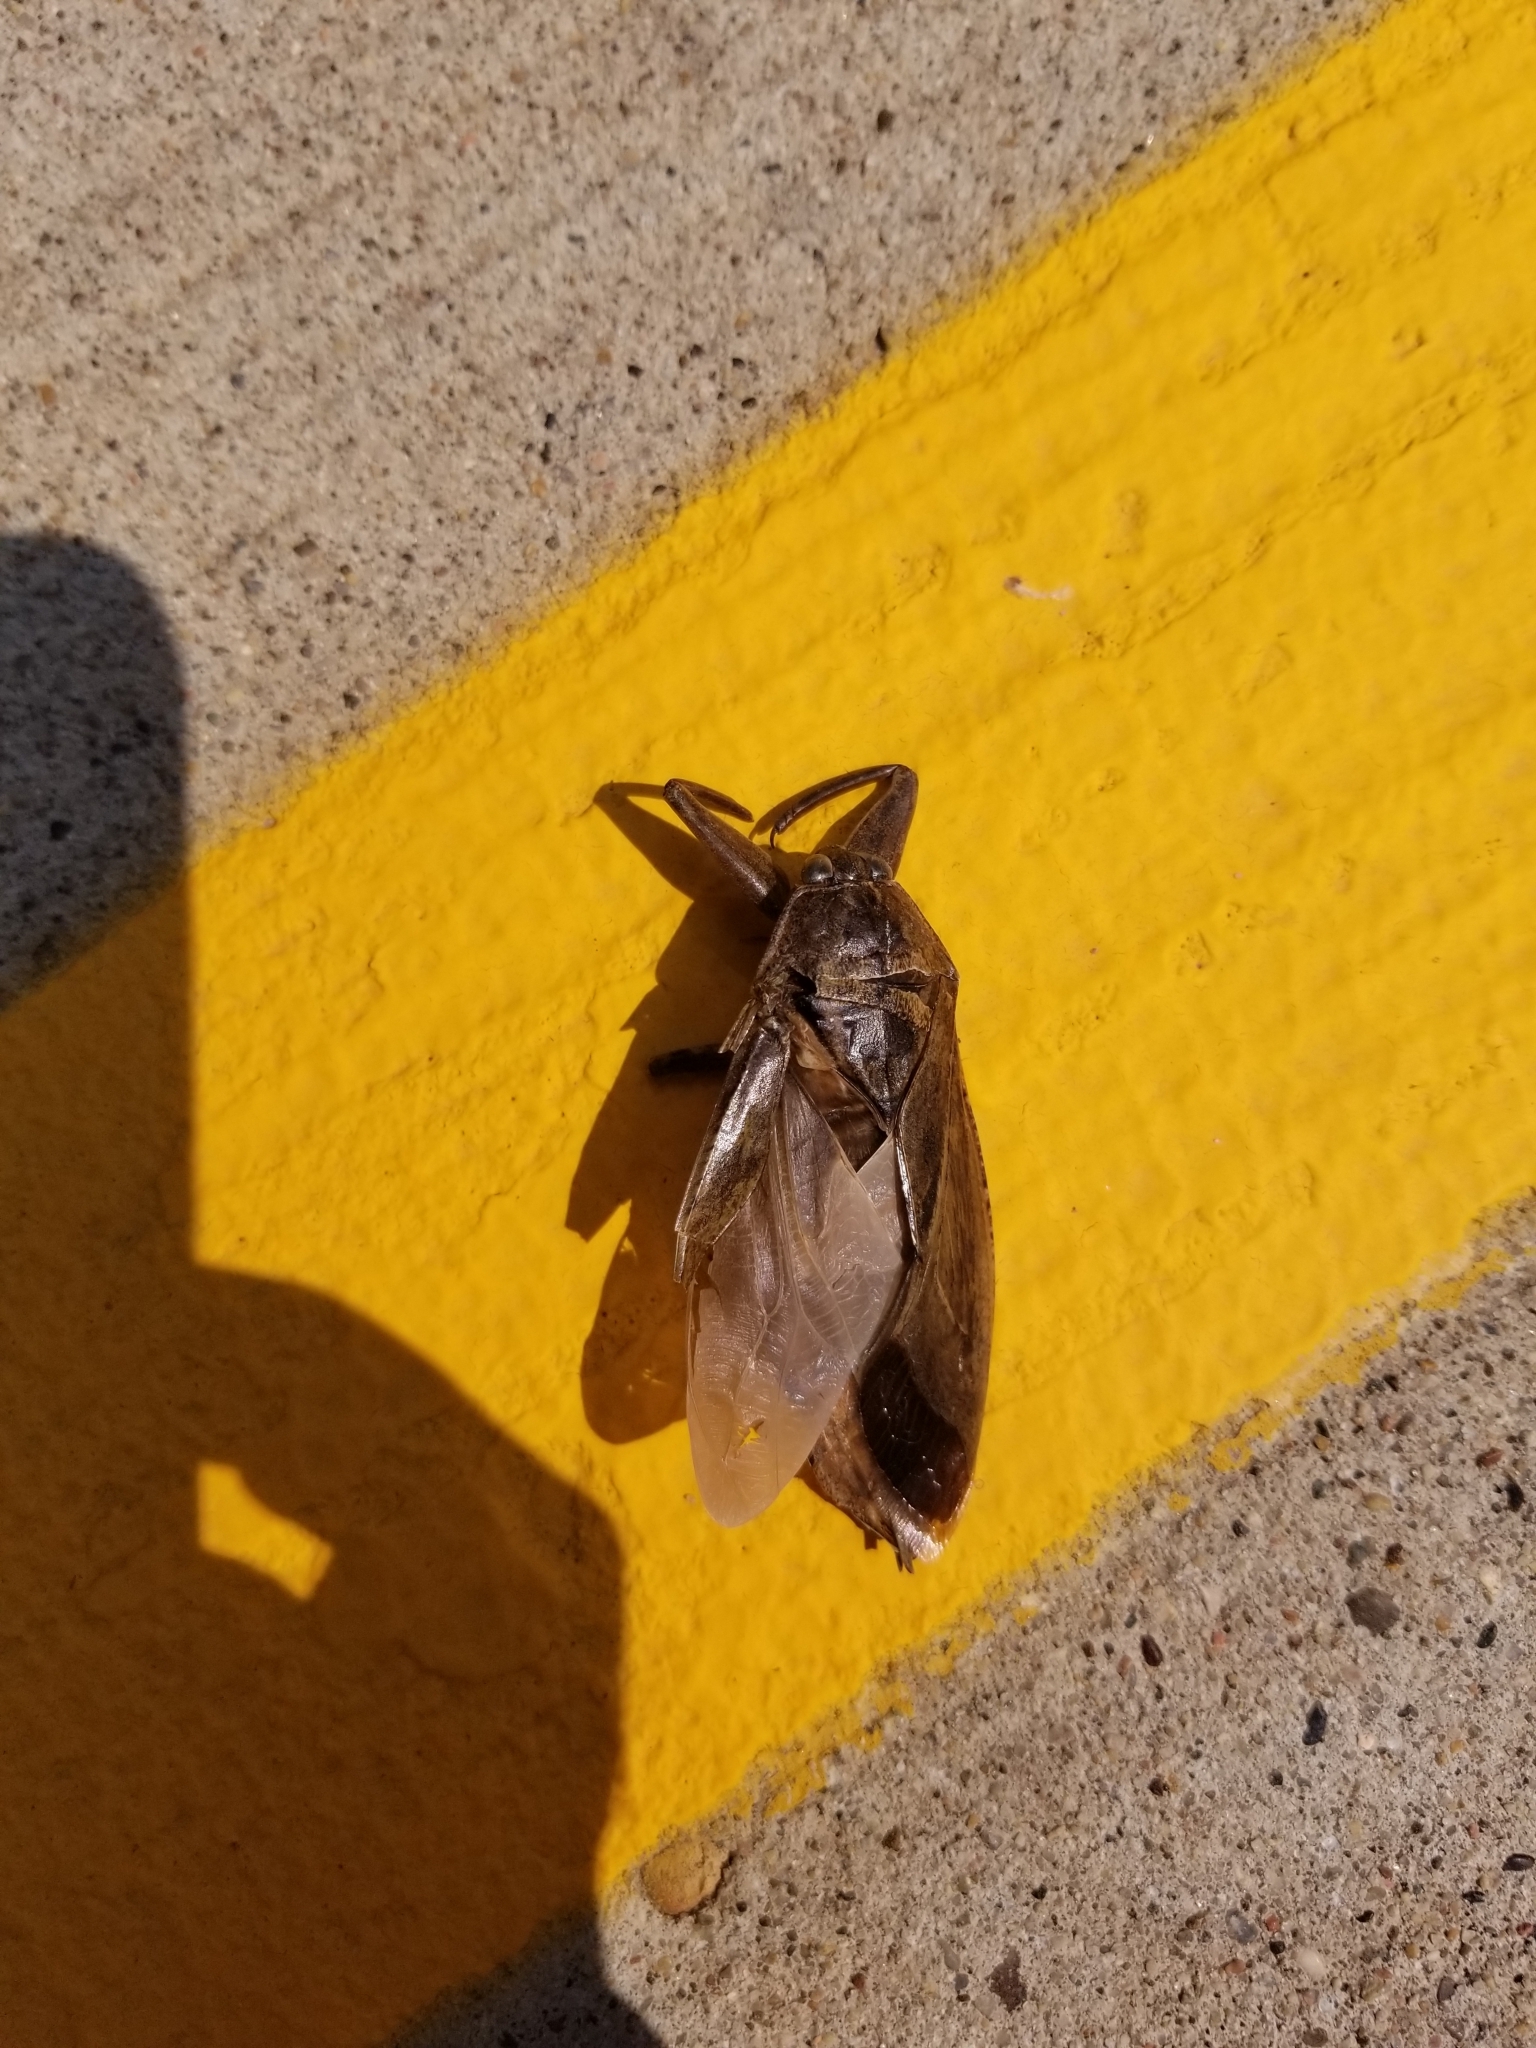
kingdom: Animalia
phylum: Arthropoda
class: Insecta
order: Hemiptera
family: Belostomatidae
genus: Lethocerus
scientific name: Lethocerus americanus
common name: Giant water bug
